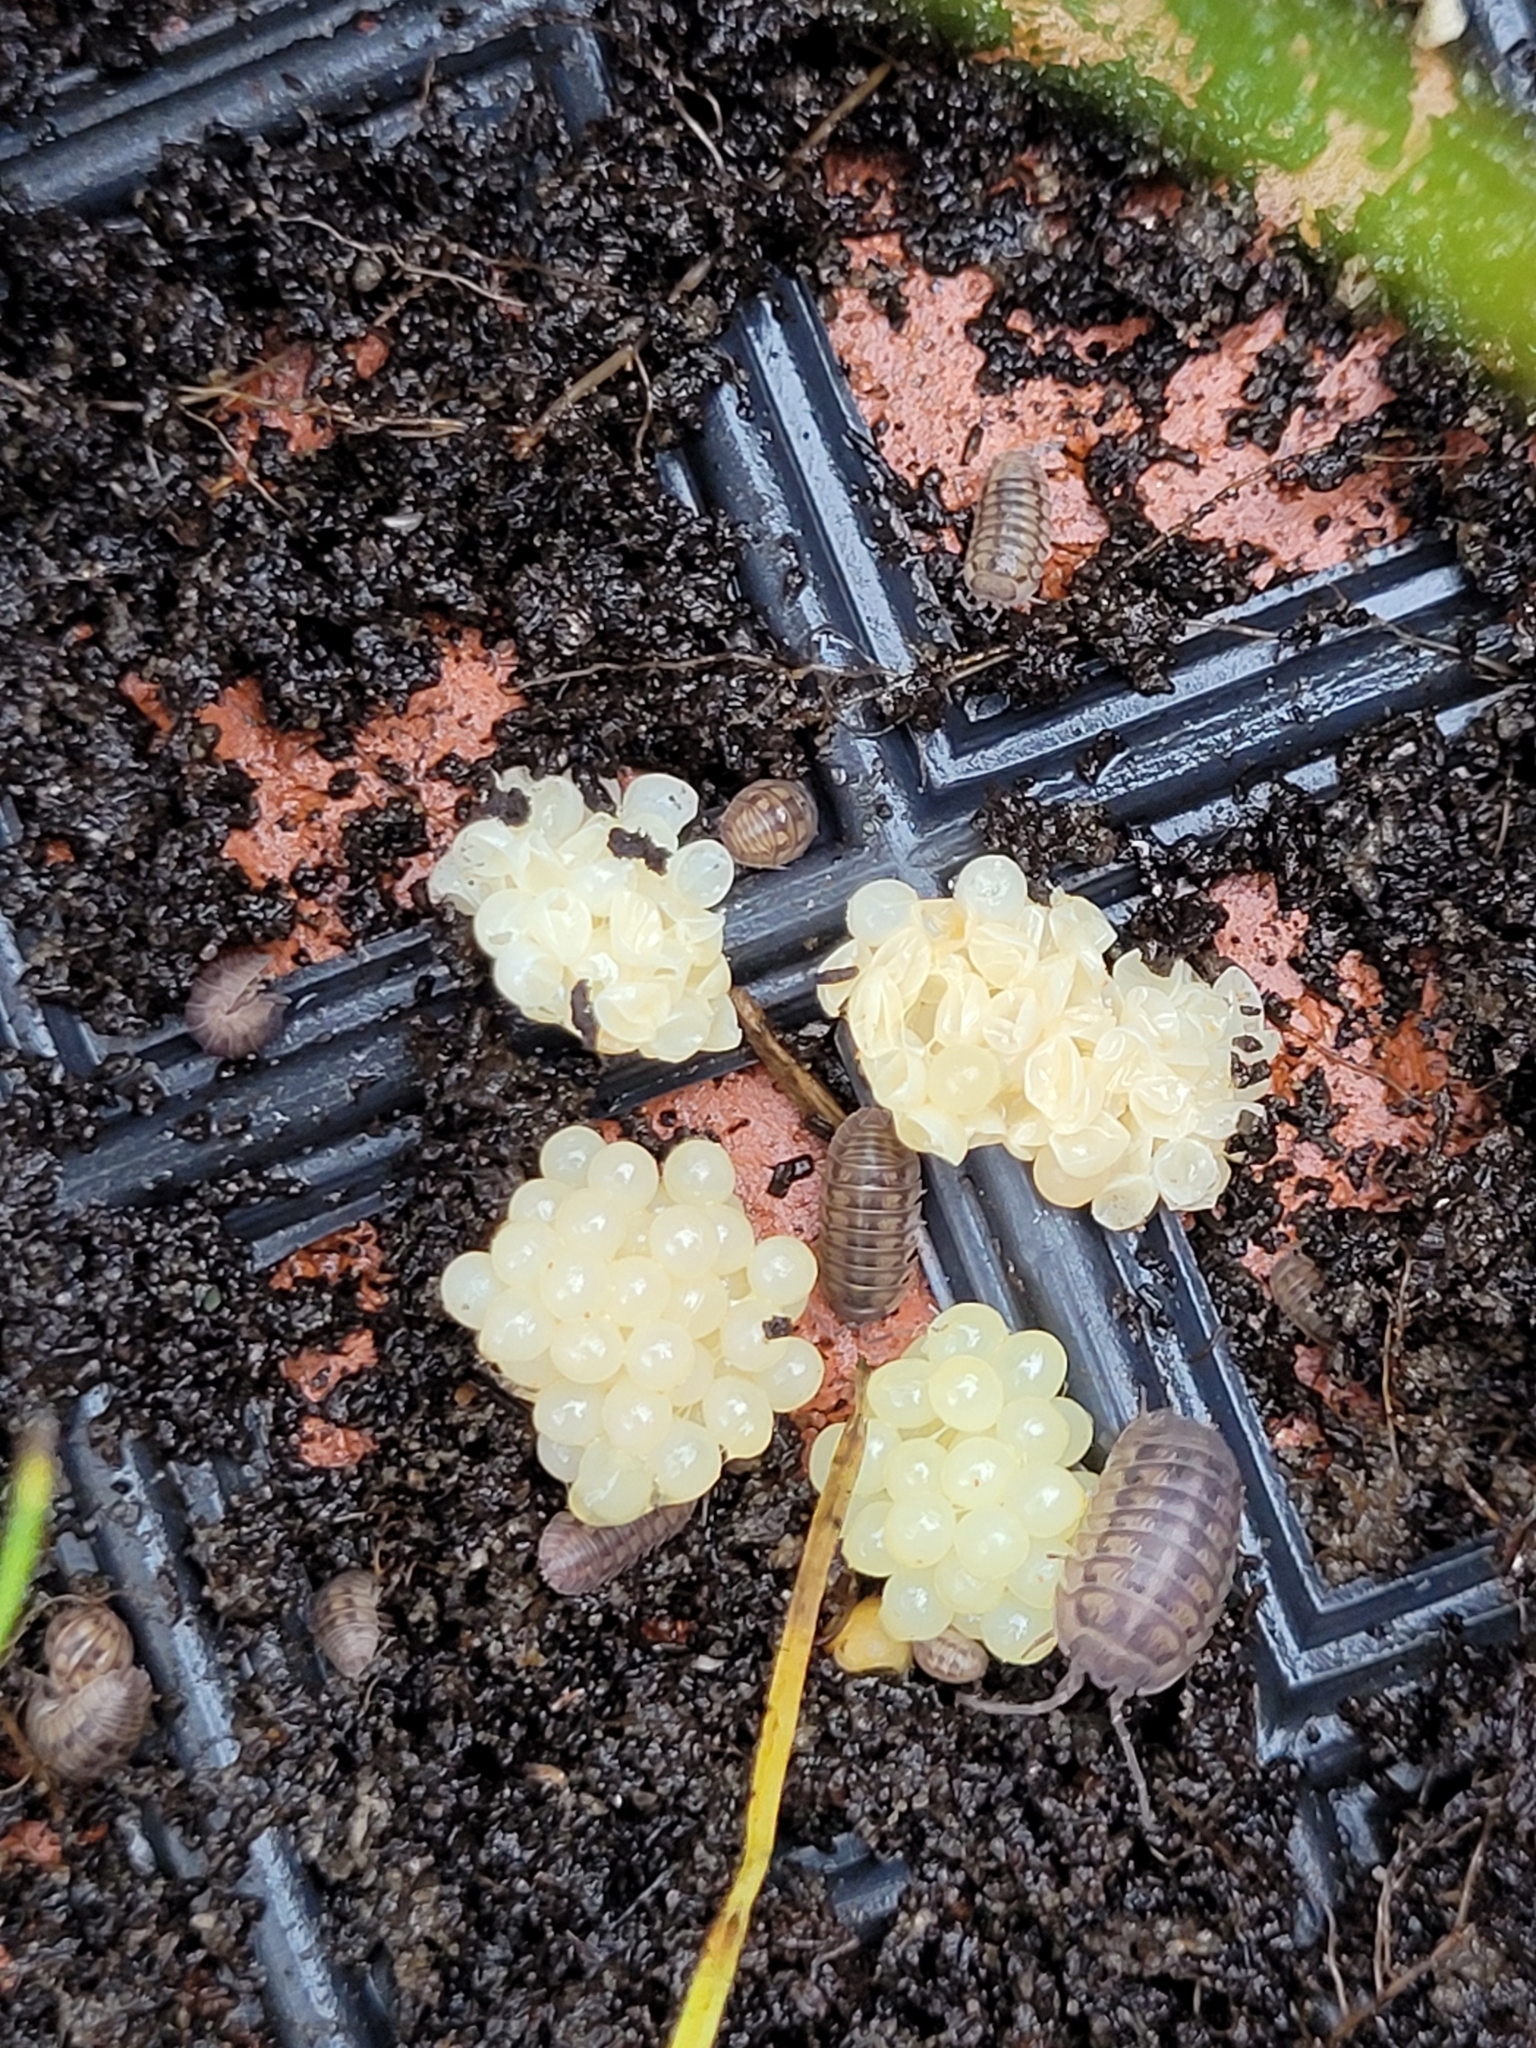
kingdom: Animalia
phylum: Arthropoda
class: Malacostraca
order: Isopoda
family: Armadillidiidae
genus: Armadillidium
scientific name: Armadillidium nasatum
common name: Isopod
